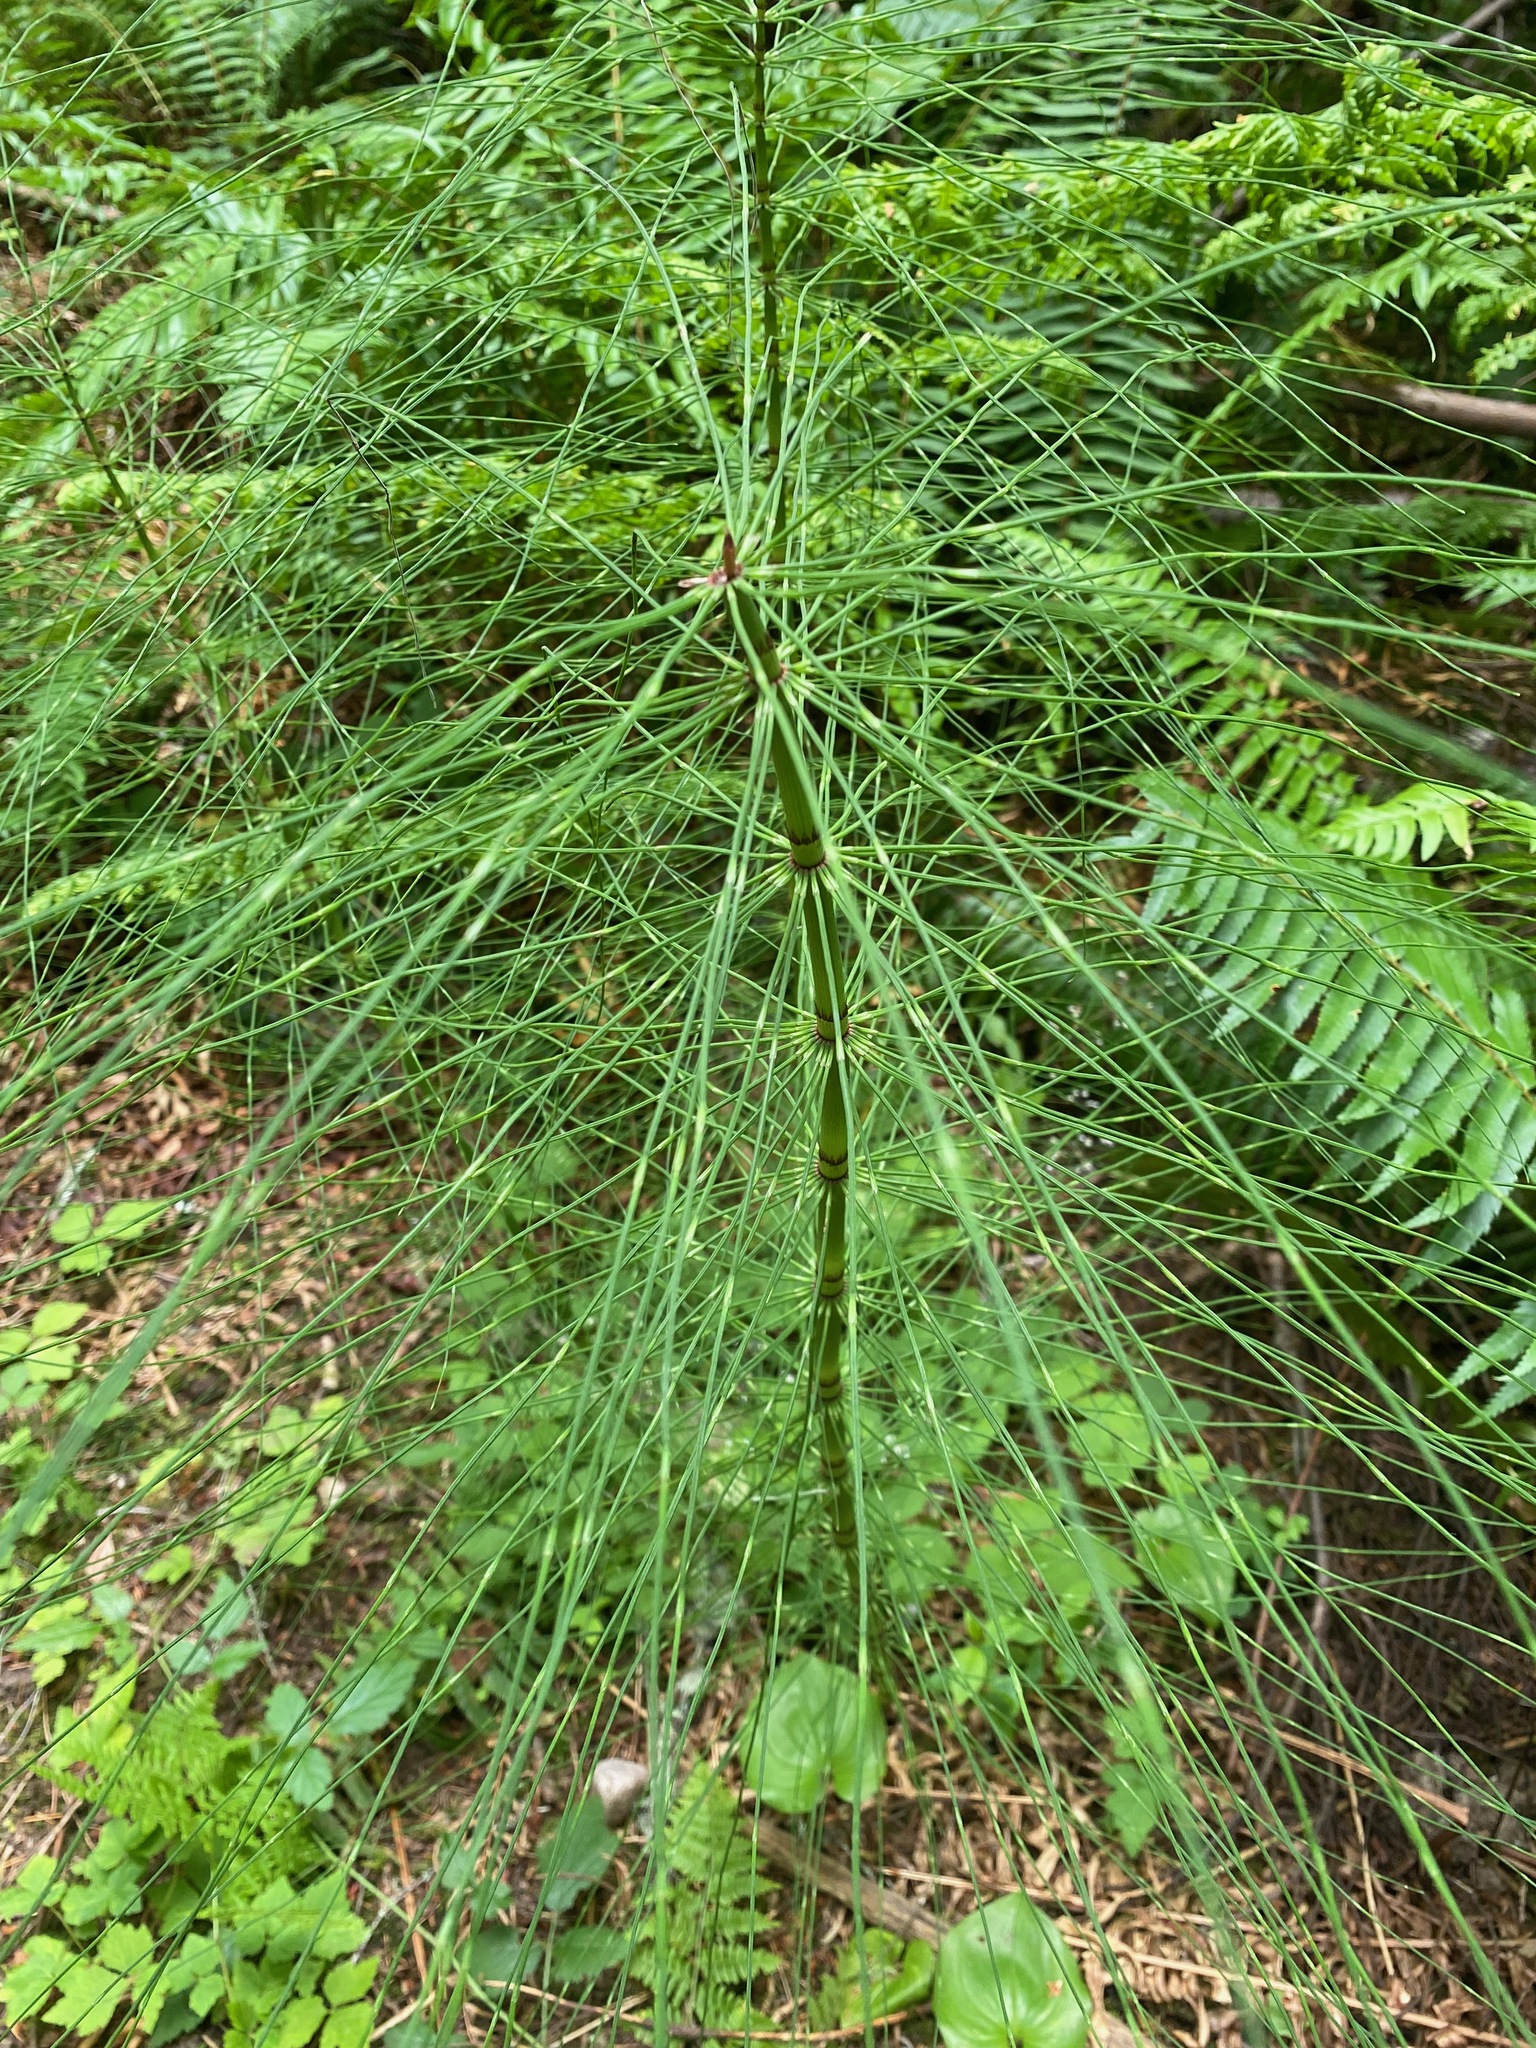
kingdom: Plantae
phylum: Tracheophyta
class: Polypodiopsida
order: Equisetales
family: Equisetaceae
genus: Equisetum
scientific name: Equisetum braunii
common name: Braun's horsetail
